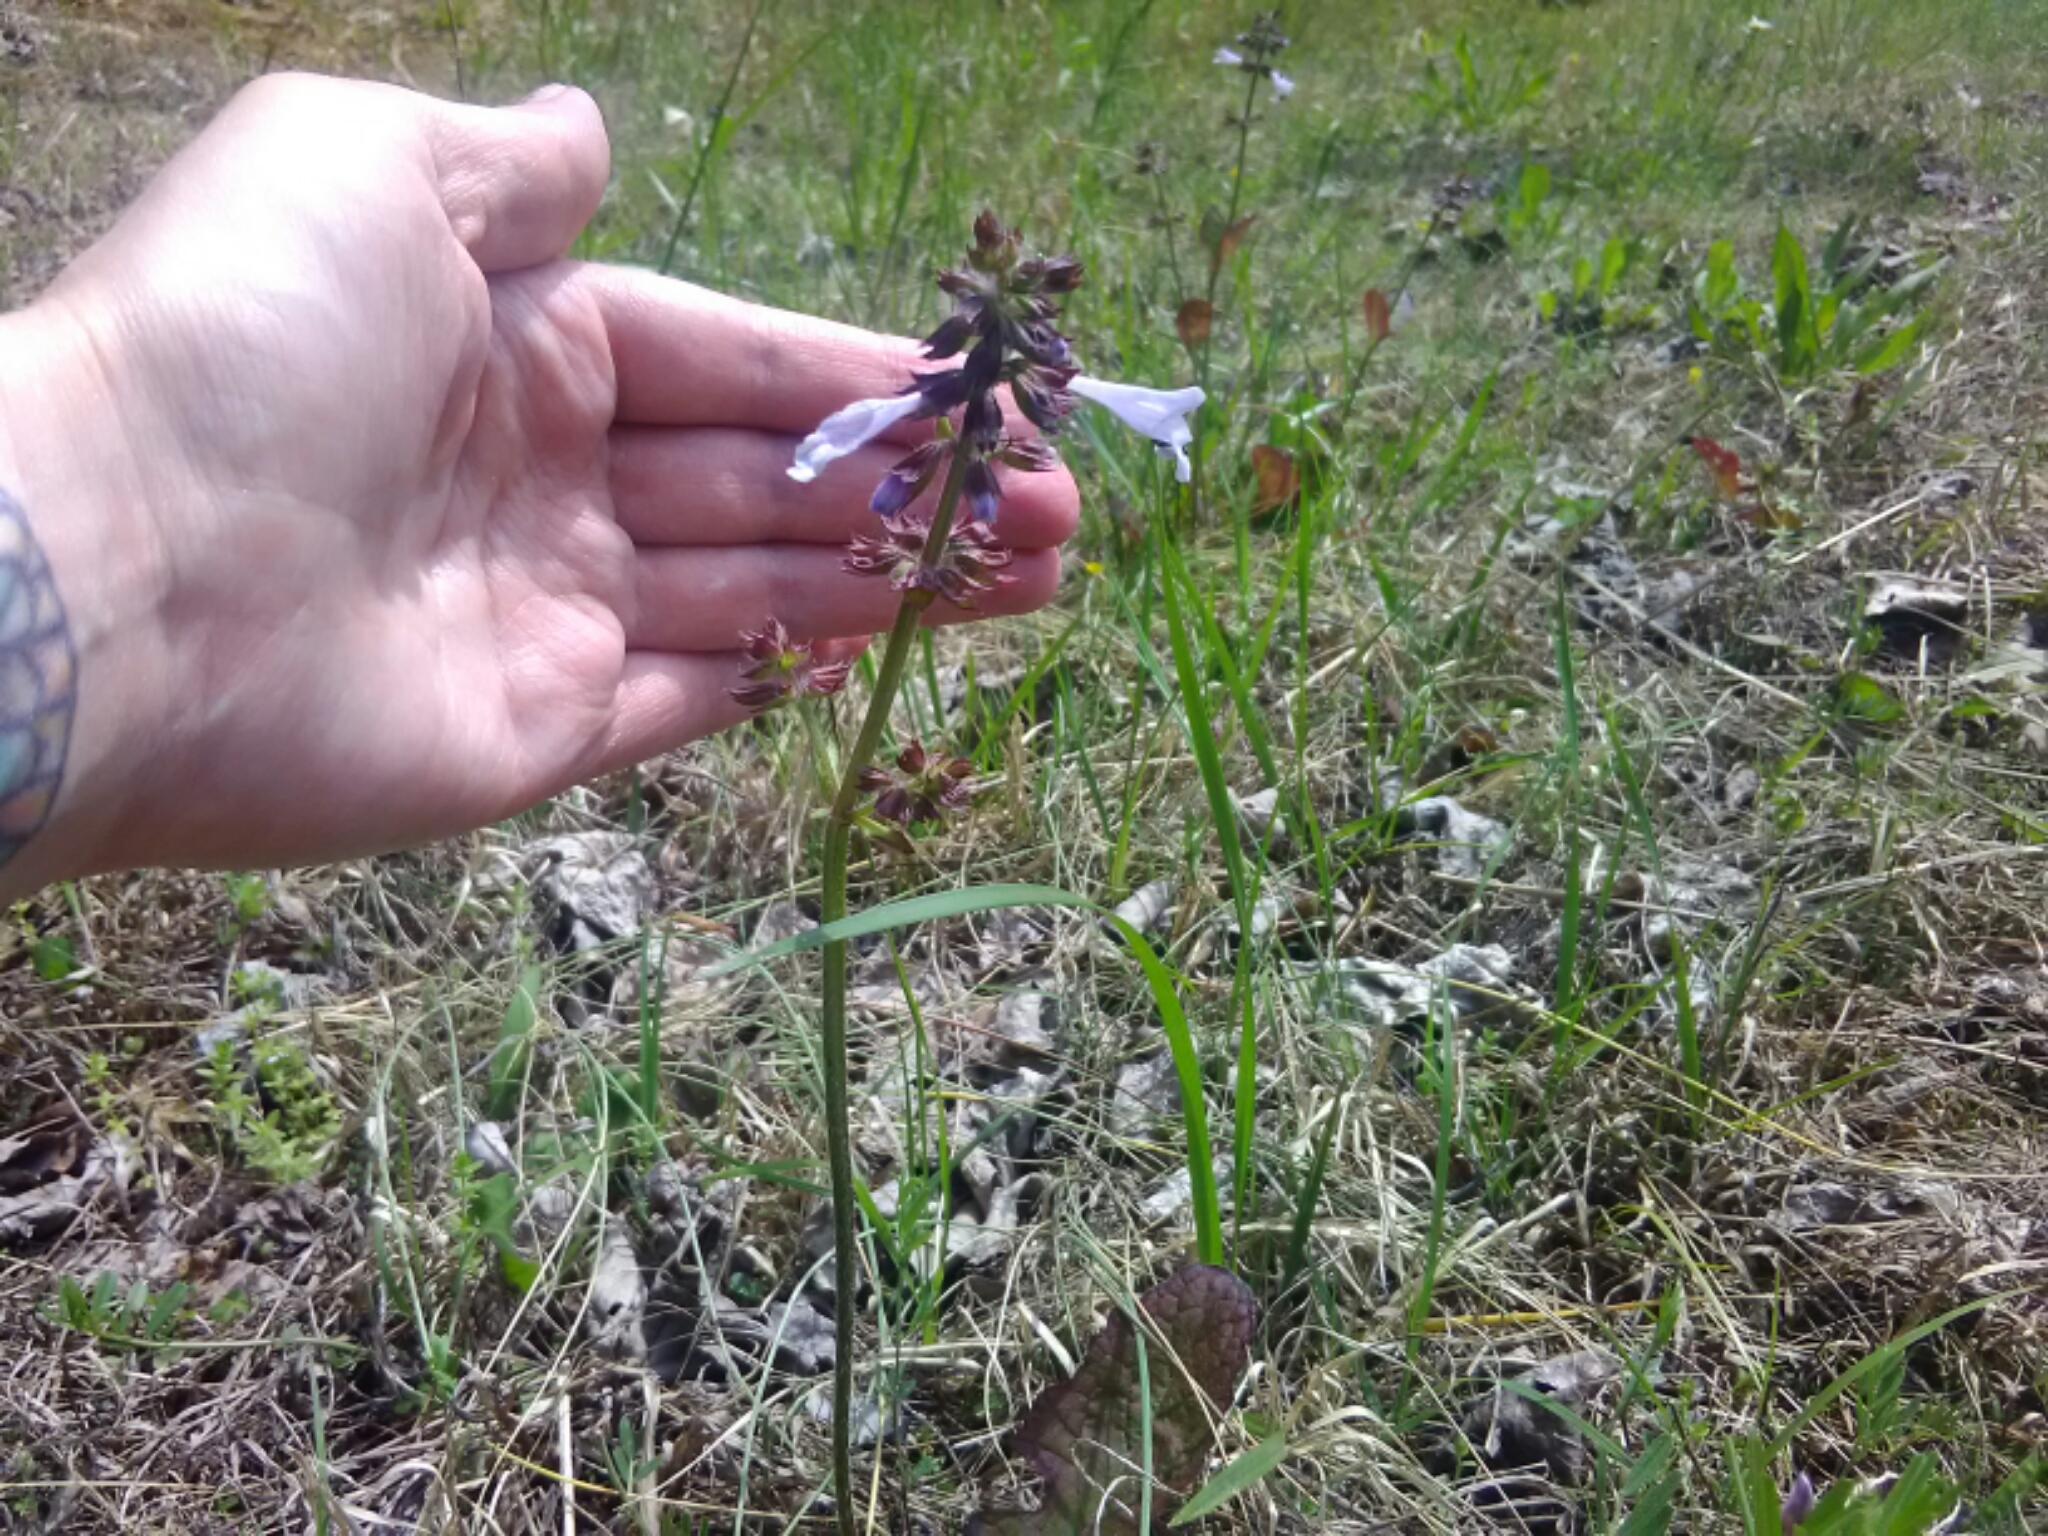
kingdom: Plantae
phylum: Tracheophyta
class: Magnoliopsida
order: Lamiales
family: Lamiaceae
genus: Salvia
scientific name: Salvia lyrata
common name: Cancerweed
